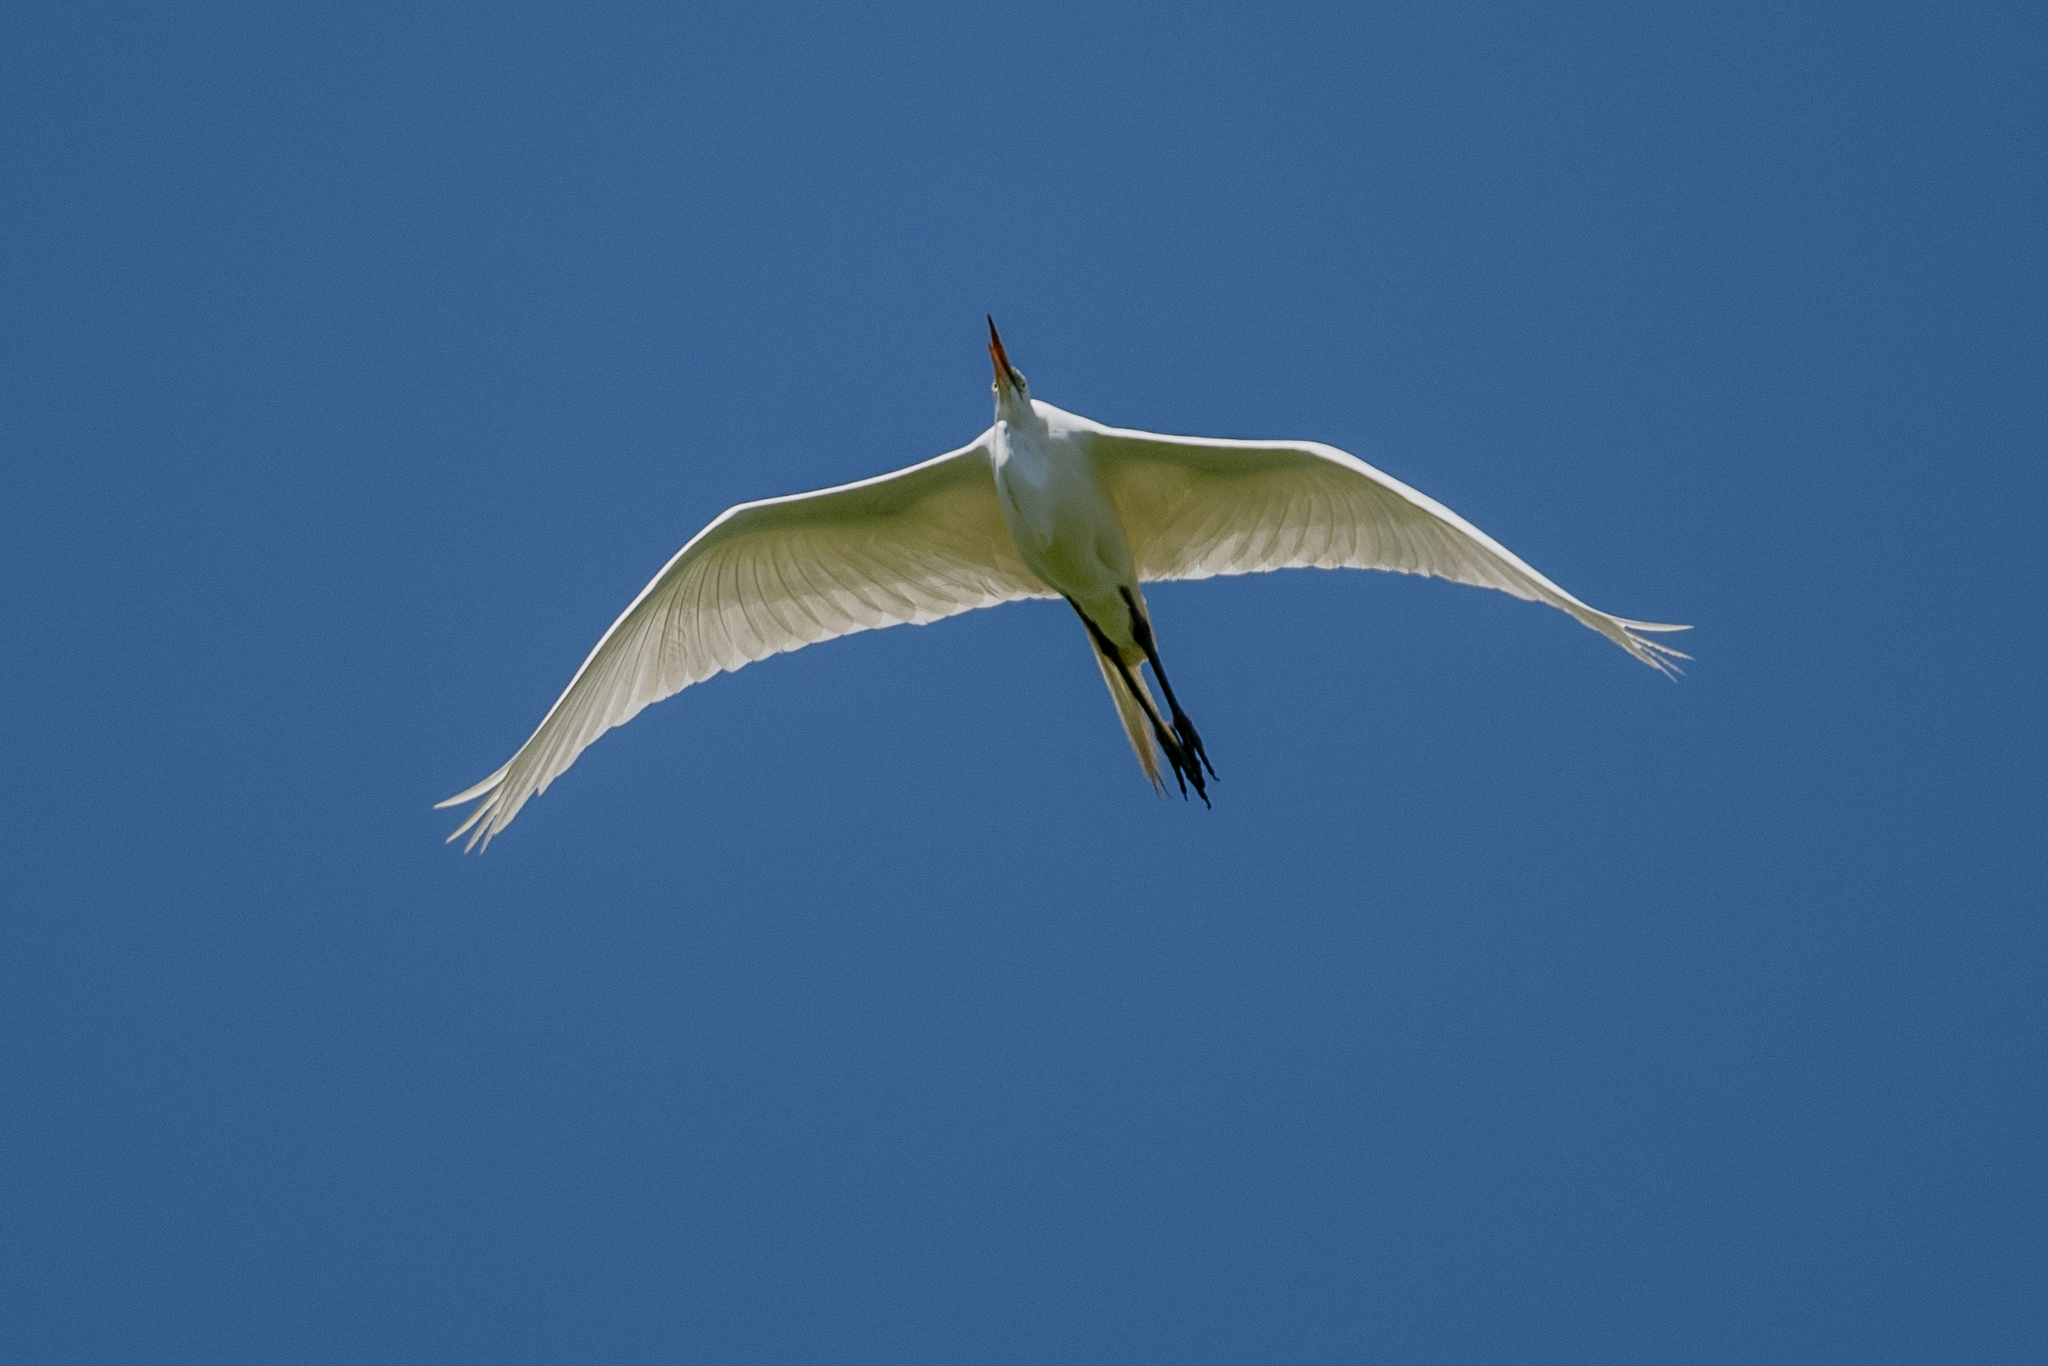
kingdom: Animalia
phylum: Chordata
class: Aves
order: Pelecaniformes
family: Ardeidae
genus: Ardea
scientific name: Ardea alba
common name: Great egret
